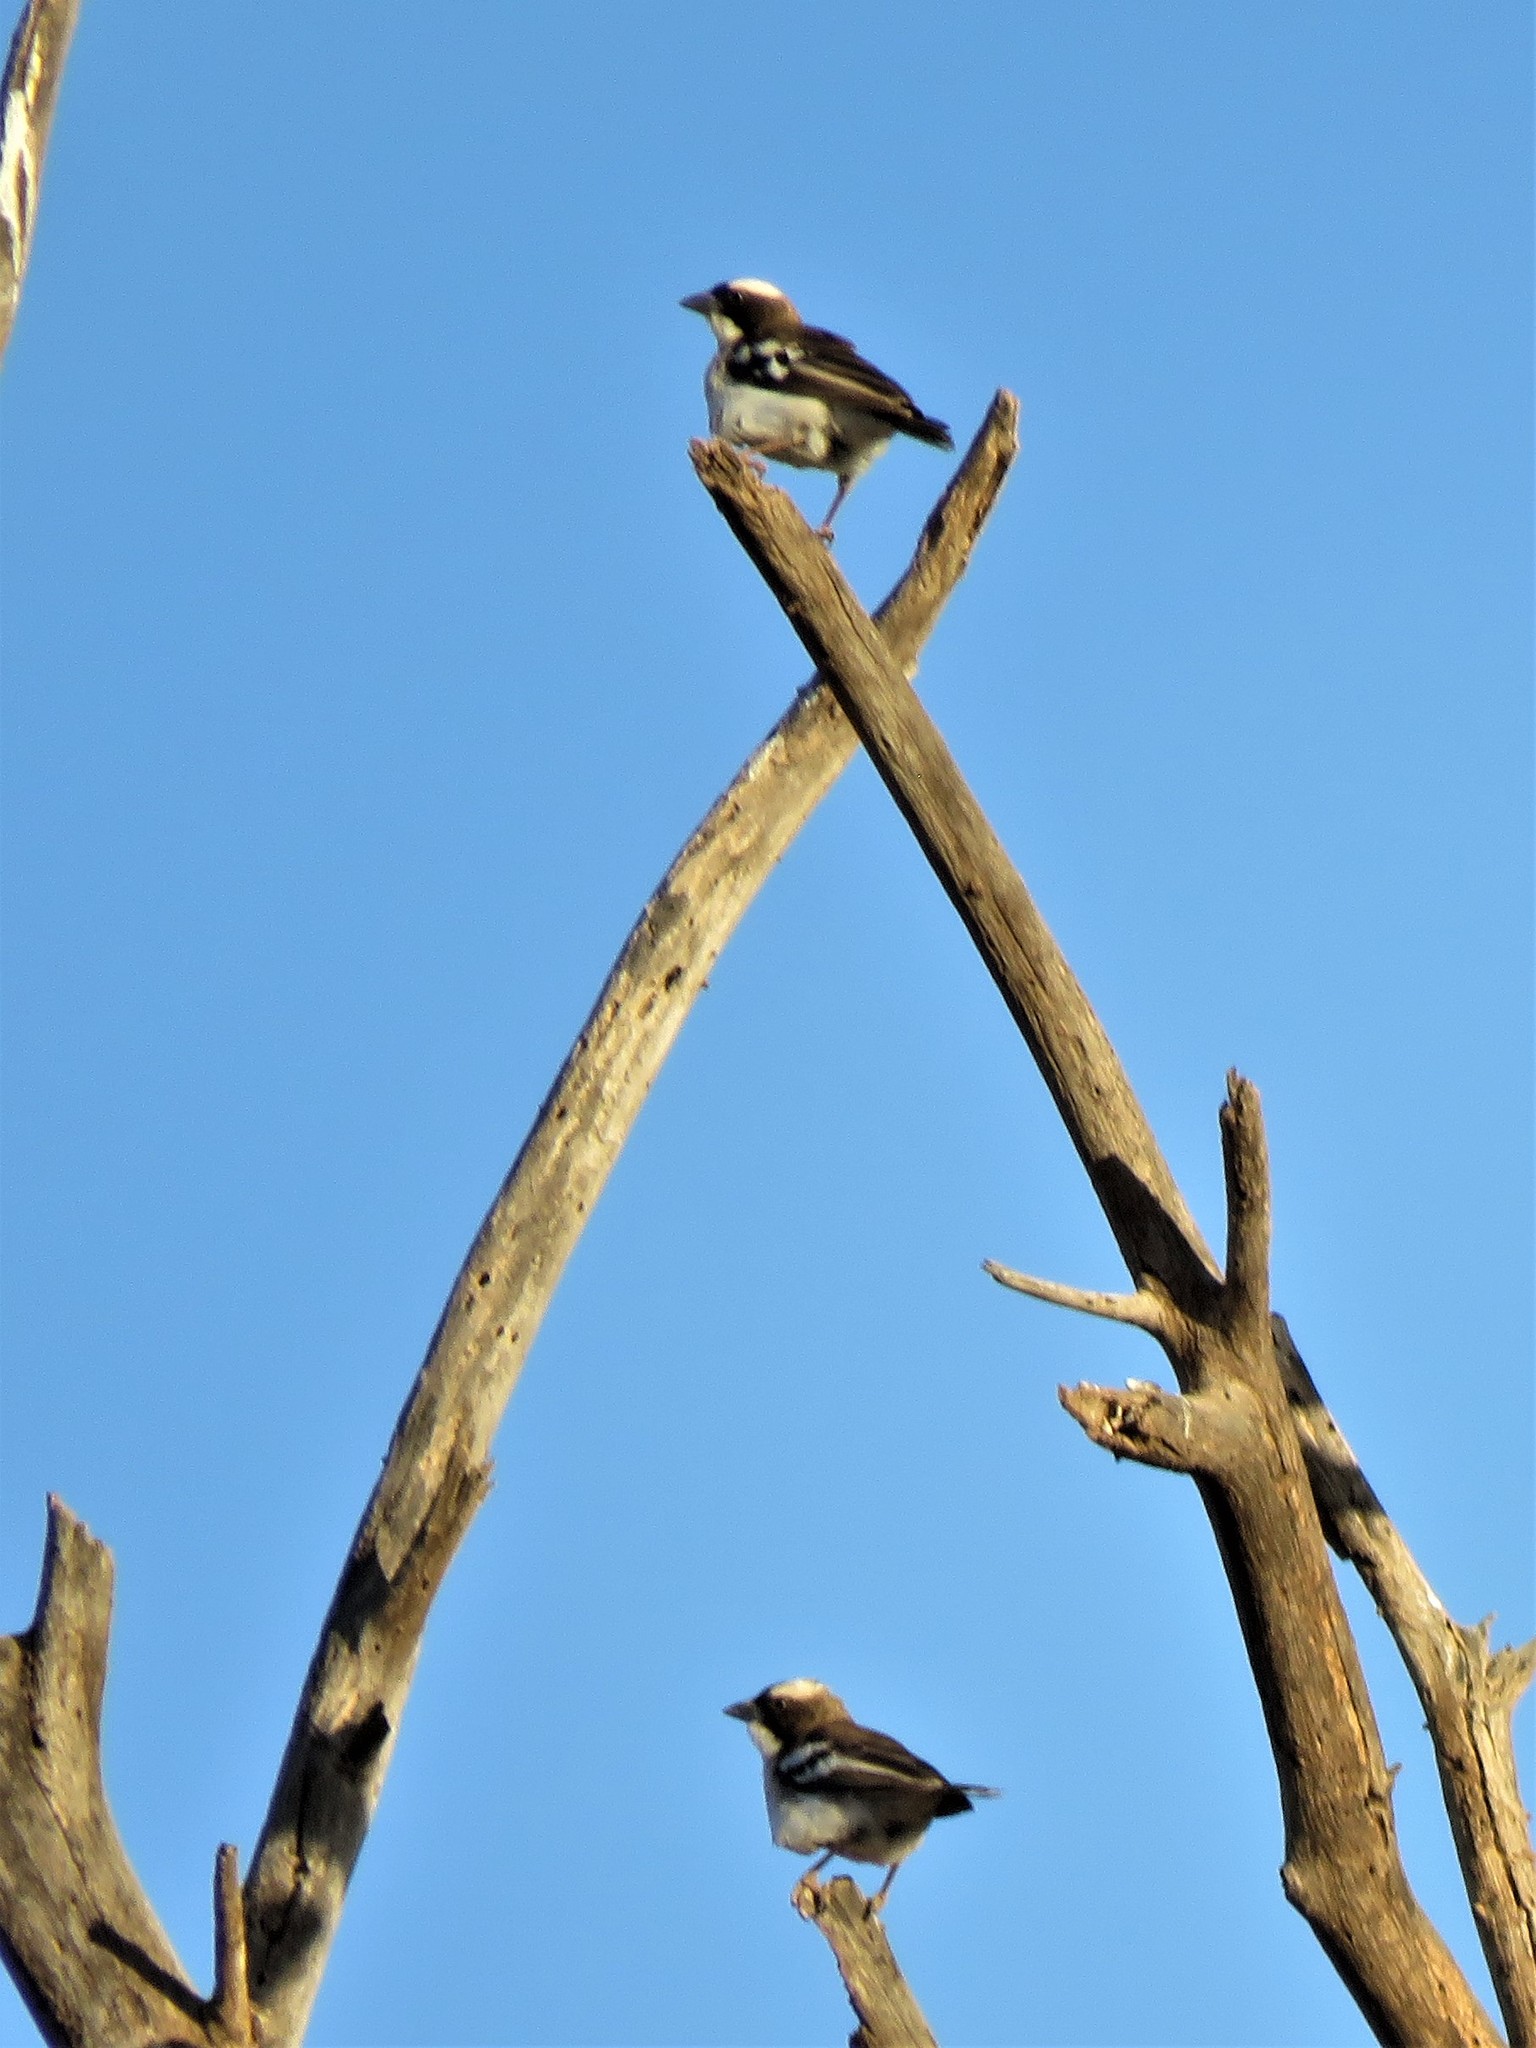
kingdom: Animalia
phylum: Chordata
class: Aves
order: Passeriformes
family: Passeridae
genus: Plocepasser
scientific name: Plocepasser mahali
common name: White-browed sparrow-weaver
